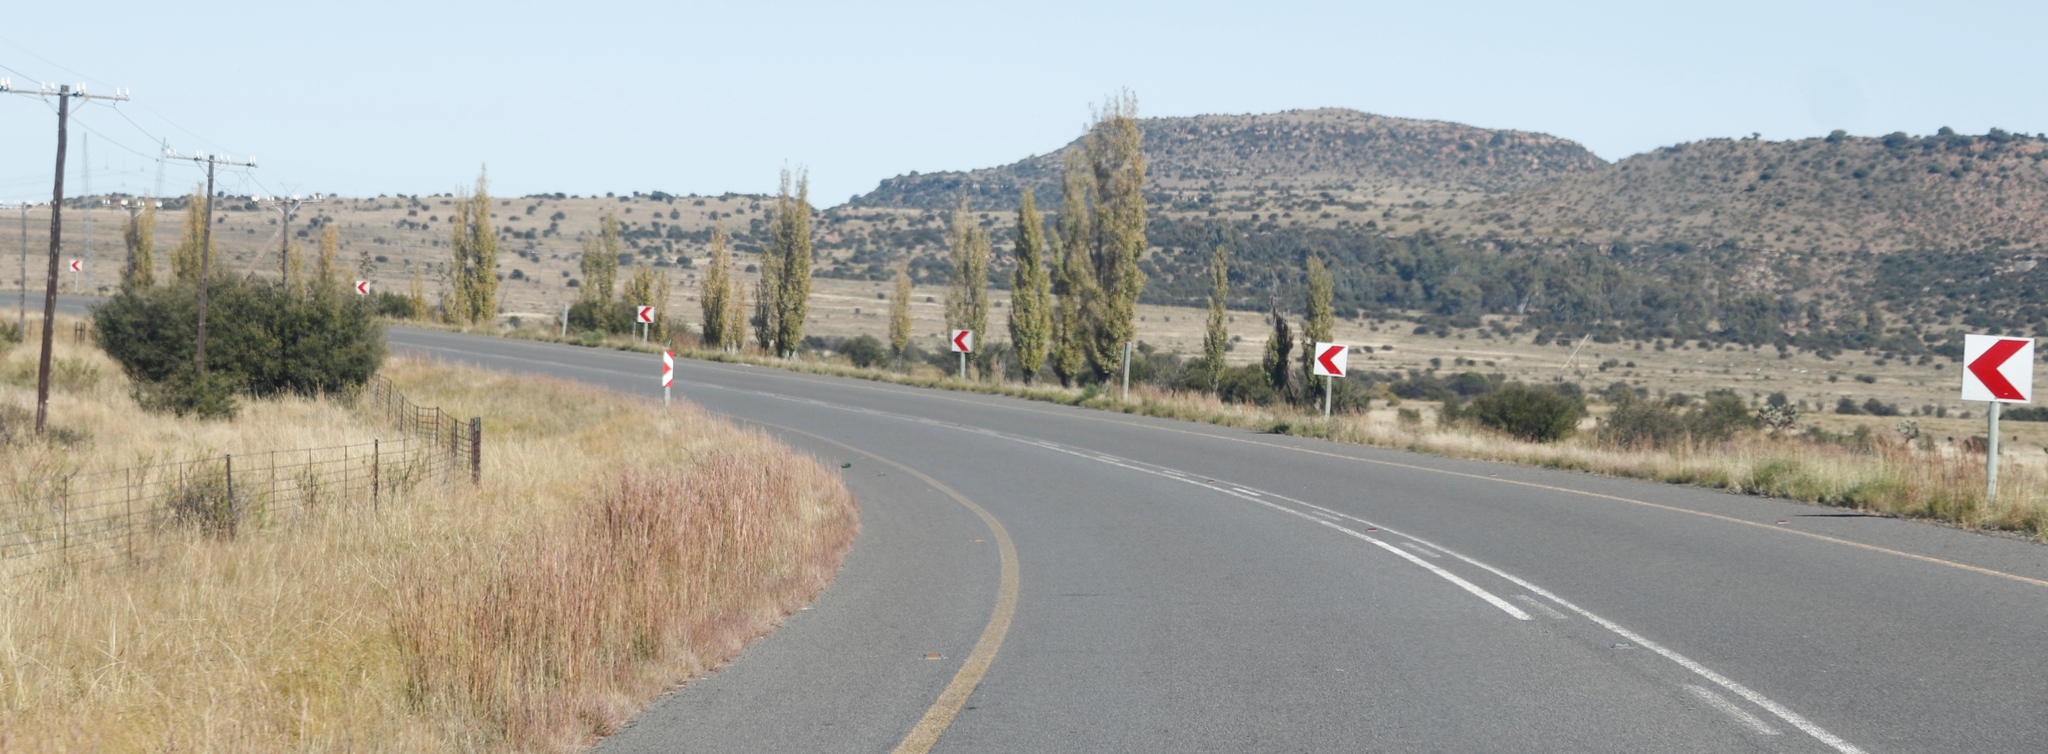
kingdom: Plantae
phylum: Tracheophyta
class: Magnoliopsida
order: Malpighiales
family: Salicaceae
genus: Populus
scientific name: Populus nigra
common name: Black poplar
